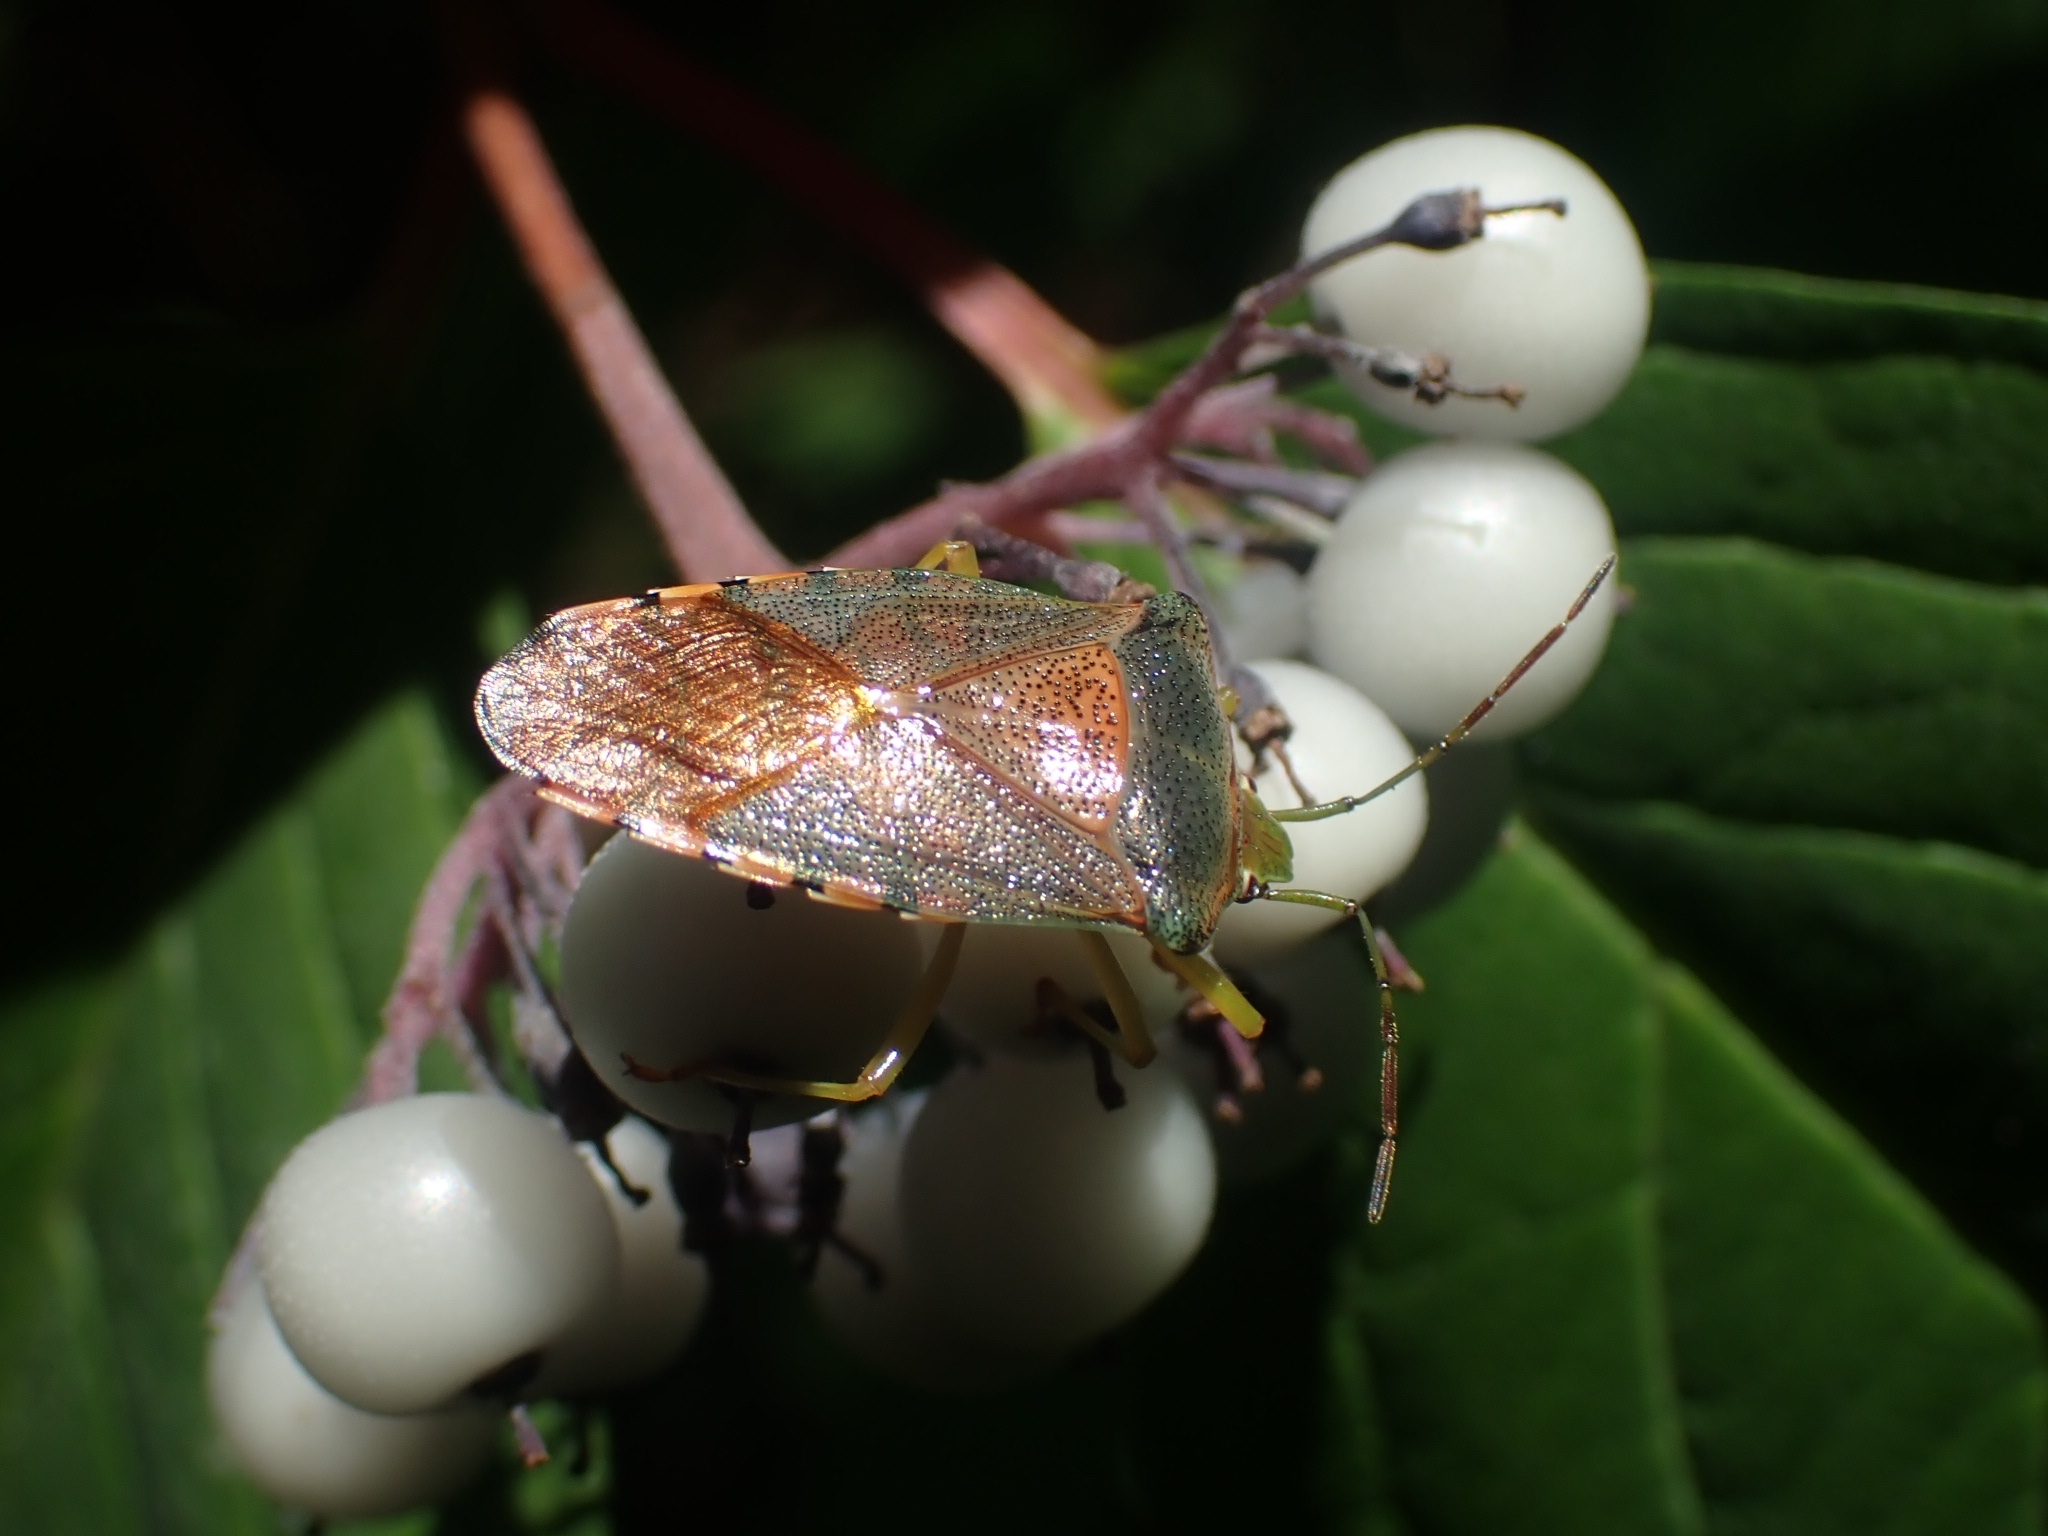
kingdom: Animalia
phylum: Arthropoda
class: Insecta
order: Hemiptera
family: Acanthosomatidae
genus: Acanthosoma
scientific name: Acanthosoma denticaudum
